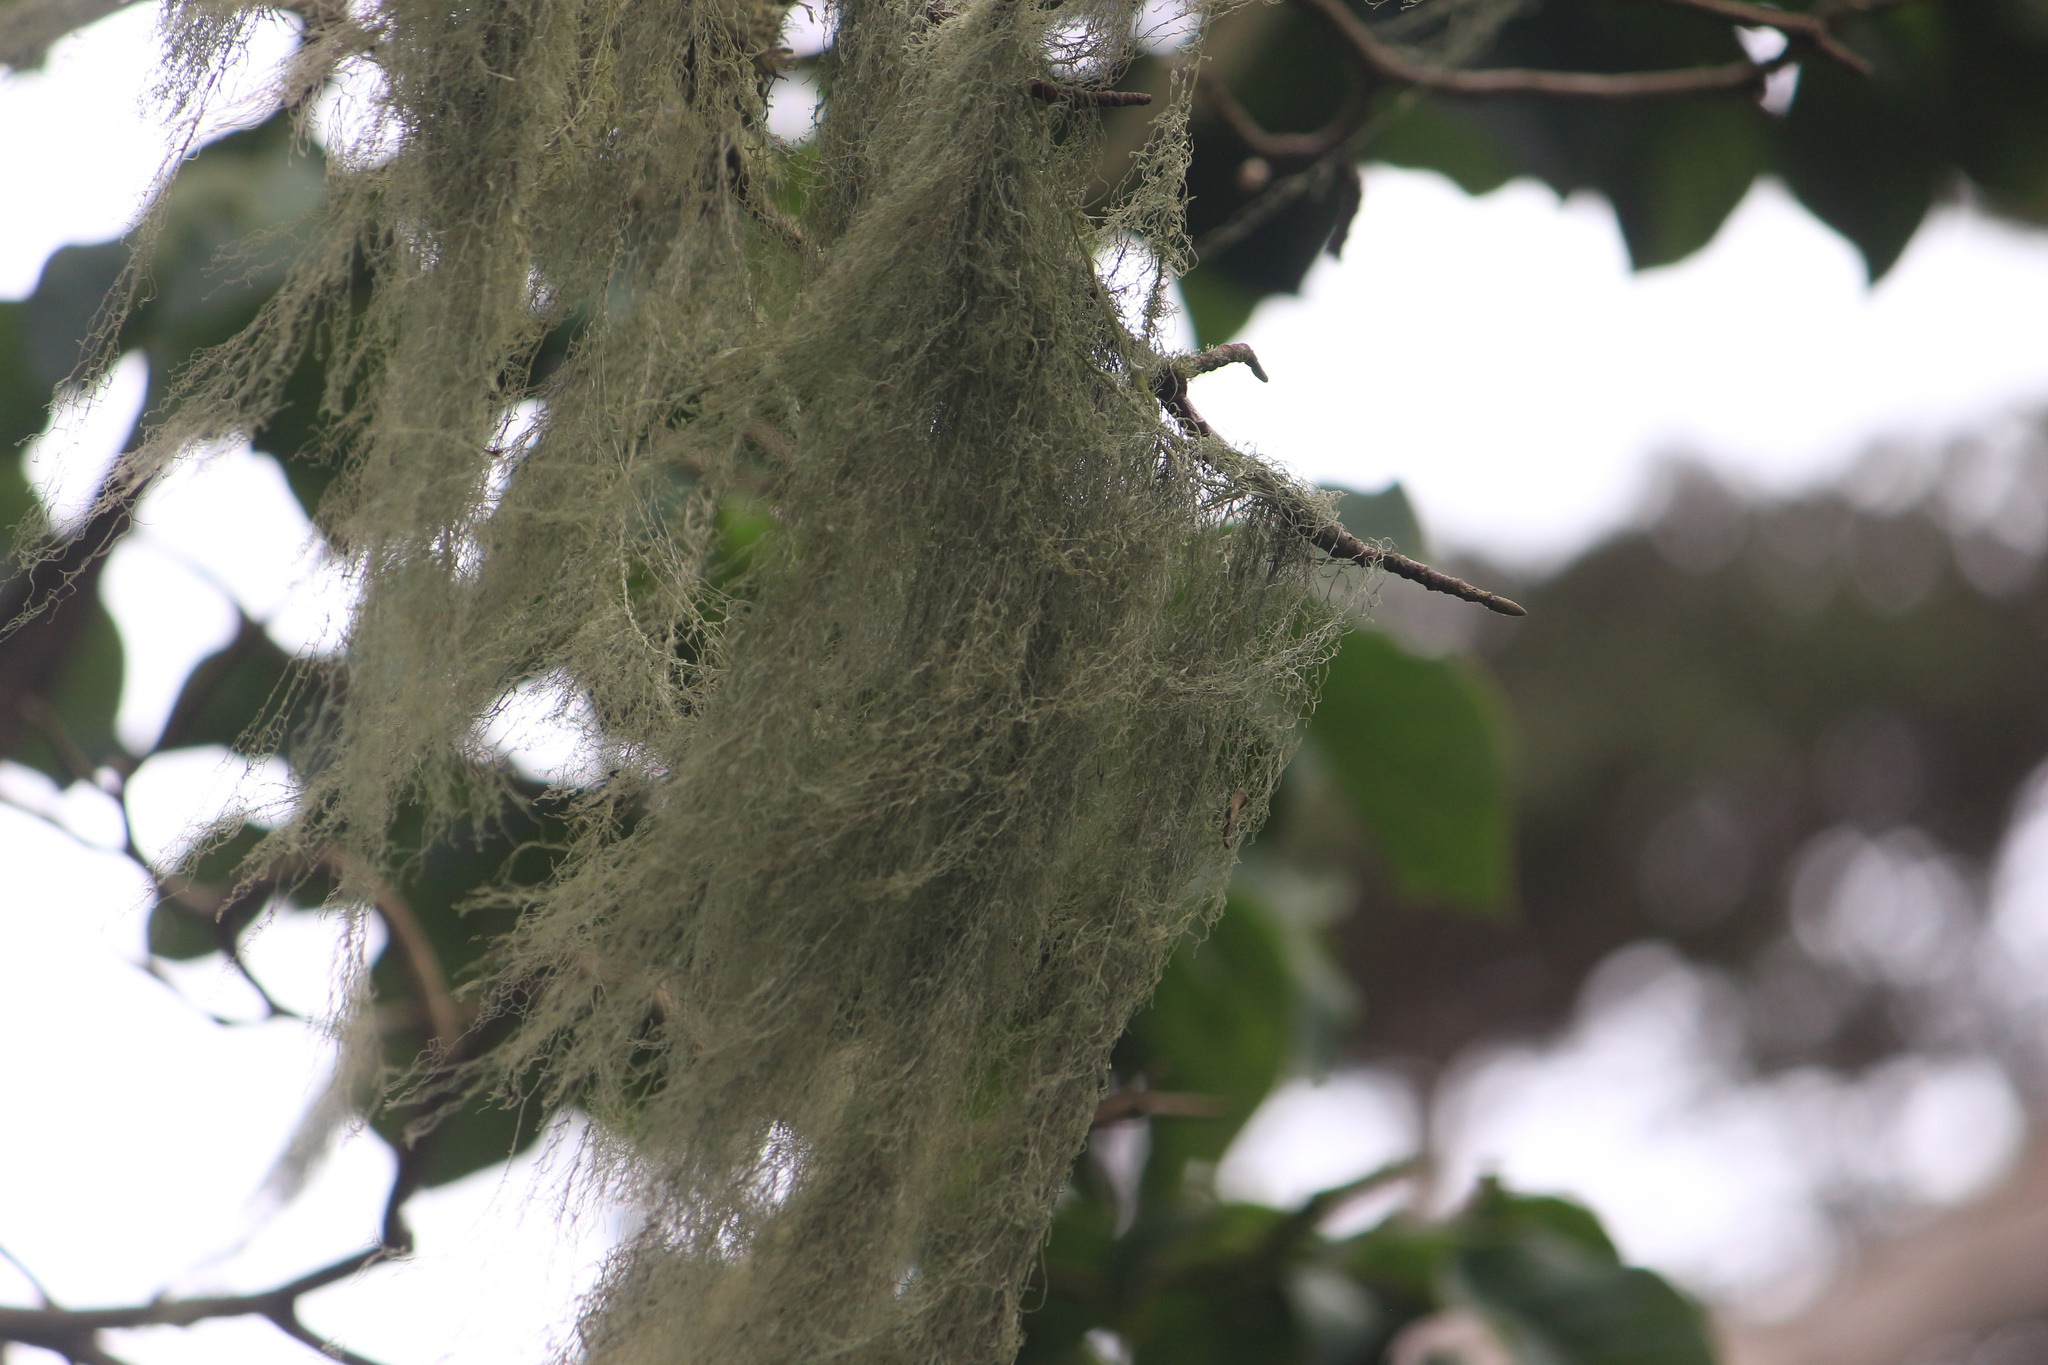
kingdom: Fungi
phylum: Ascomycota
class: Lecanoromycetes
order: Lecanorales
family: Ramalinaceae
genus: Ramalina
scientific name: Ramalina menziesii
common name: Lace lichen
